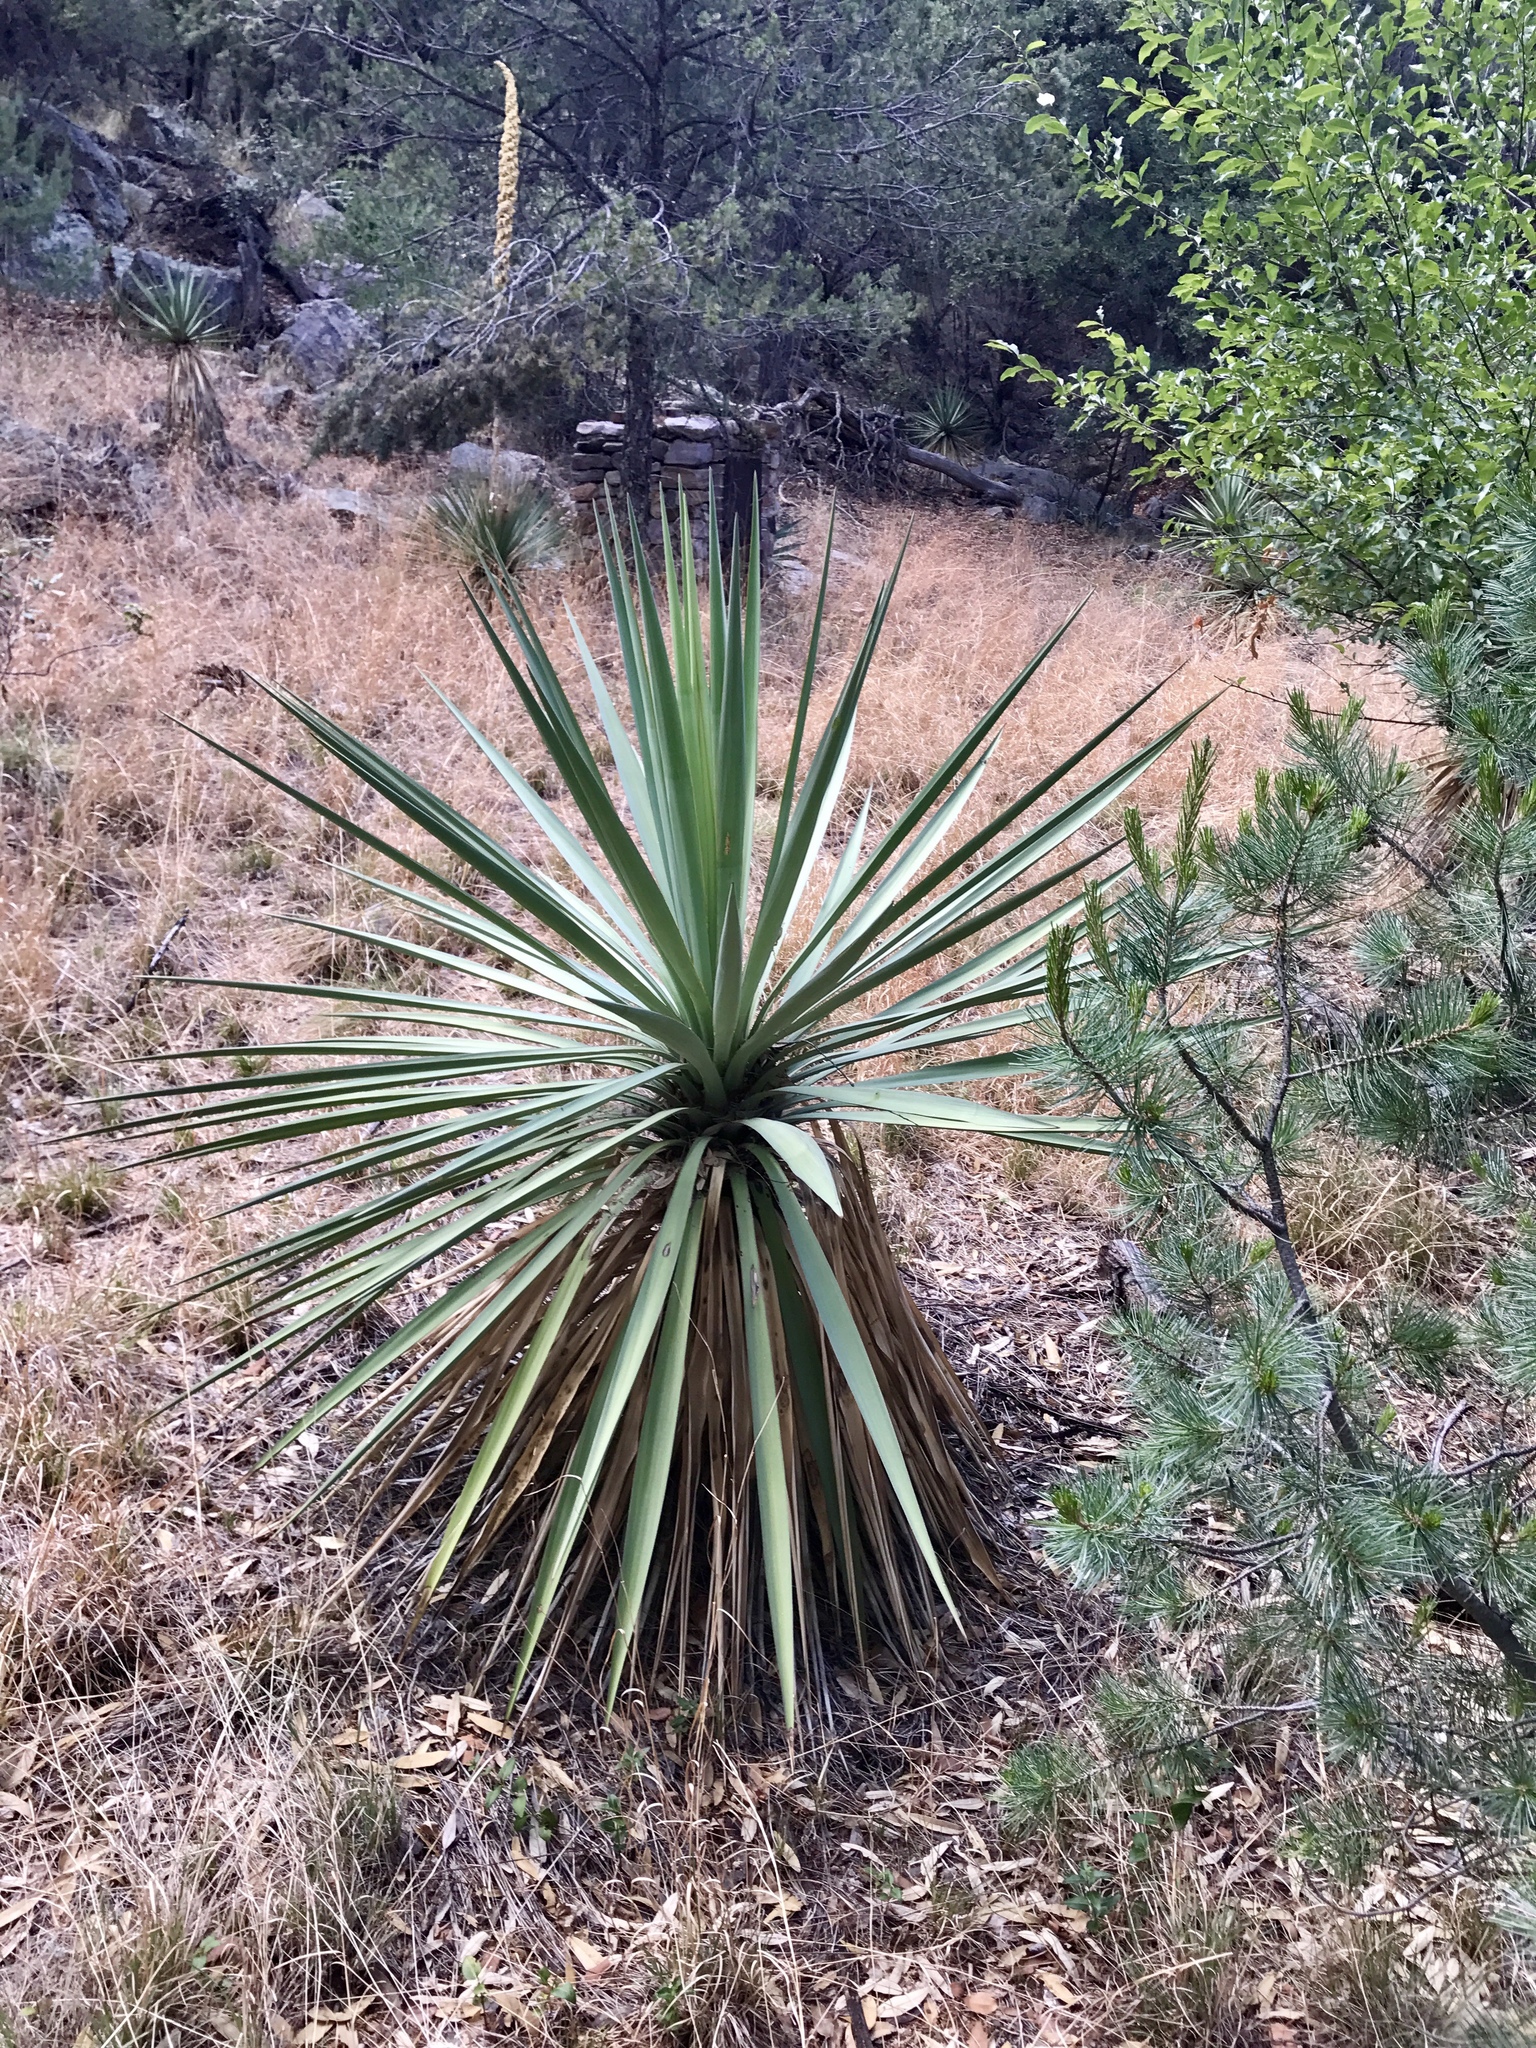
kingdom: Plantae
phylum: Tracheophyta
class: Liliopsida
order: Asparagales
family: Asparagaceae
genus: Yucca
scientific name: Yucca schottii
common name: Hoary yucca
